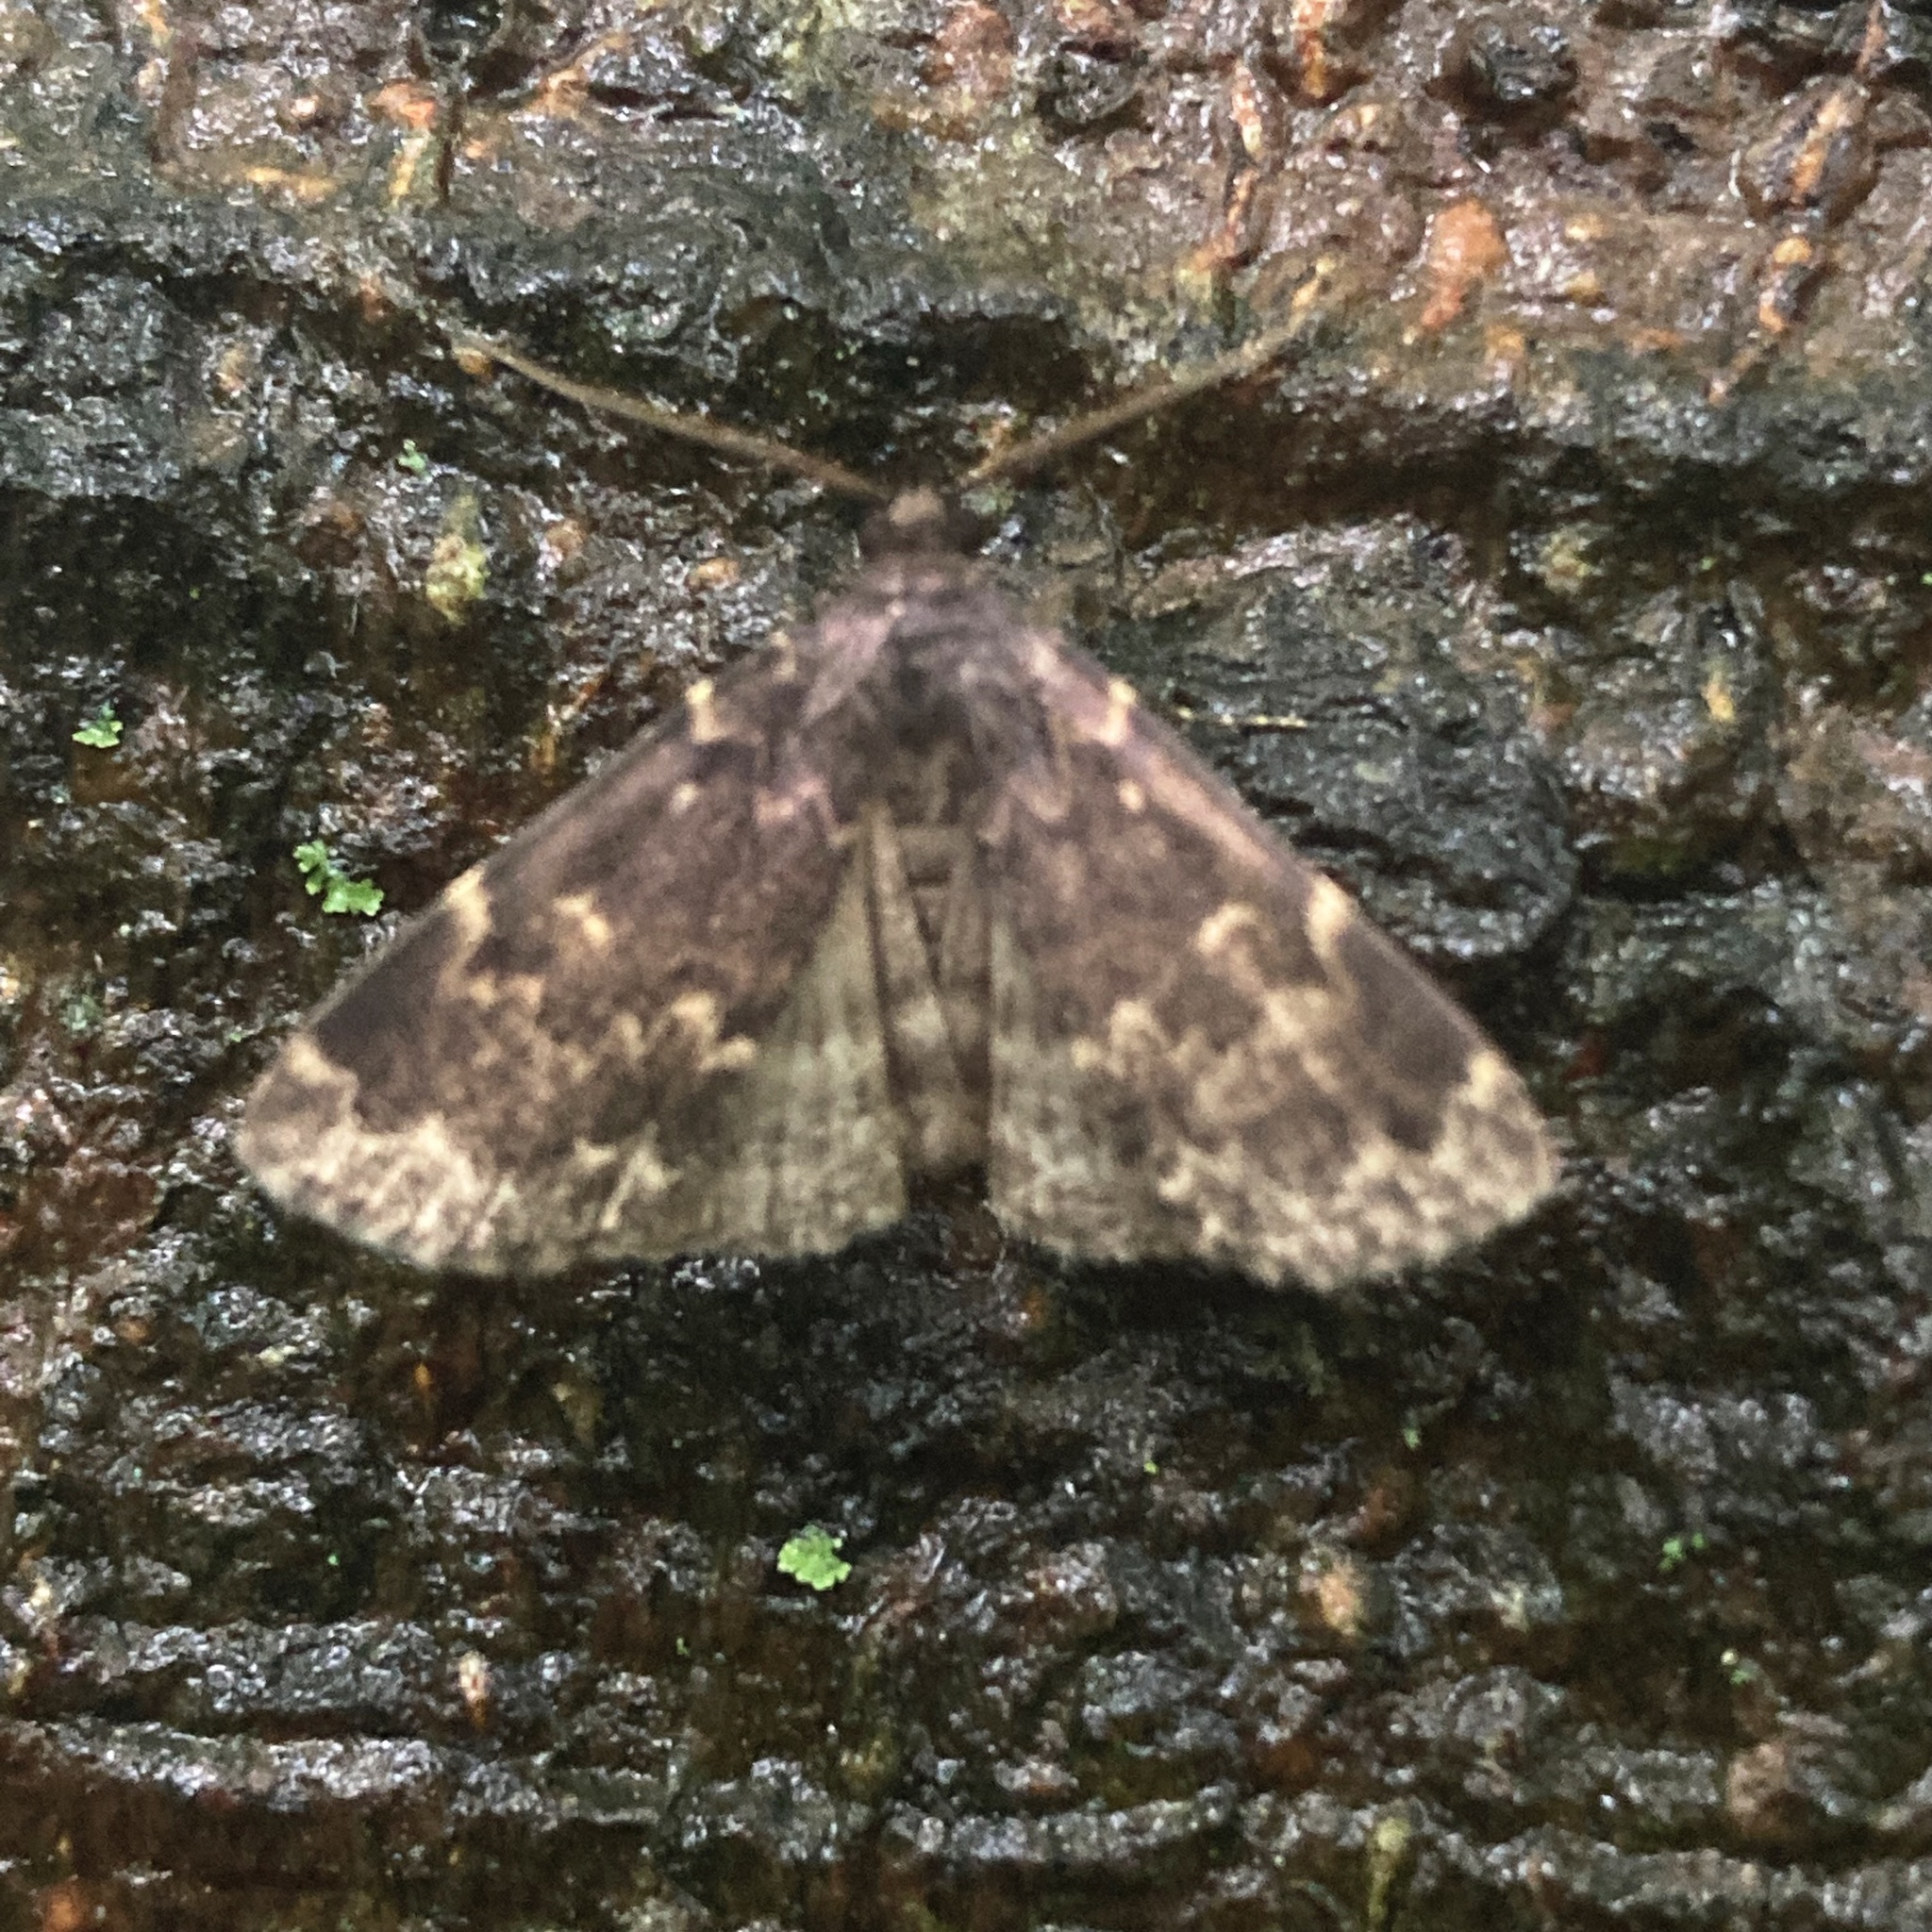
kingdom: Animalia
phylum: Arthropoda
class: Insecta
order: Lepidoptera
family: Erebidae
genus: Idia
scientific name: Idia lubricalis
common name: Twin-striped tabby
